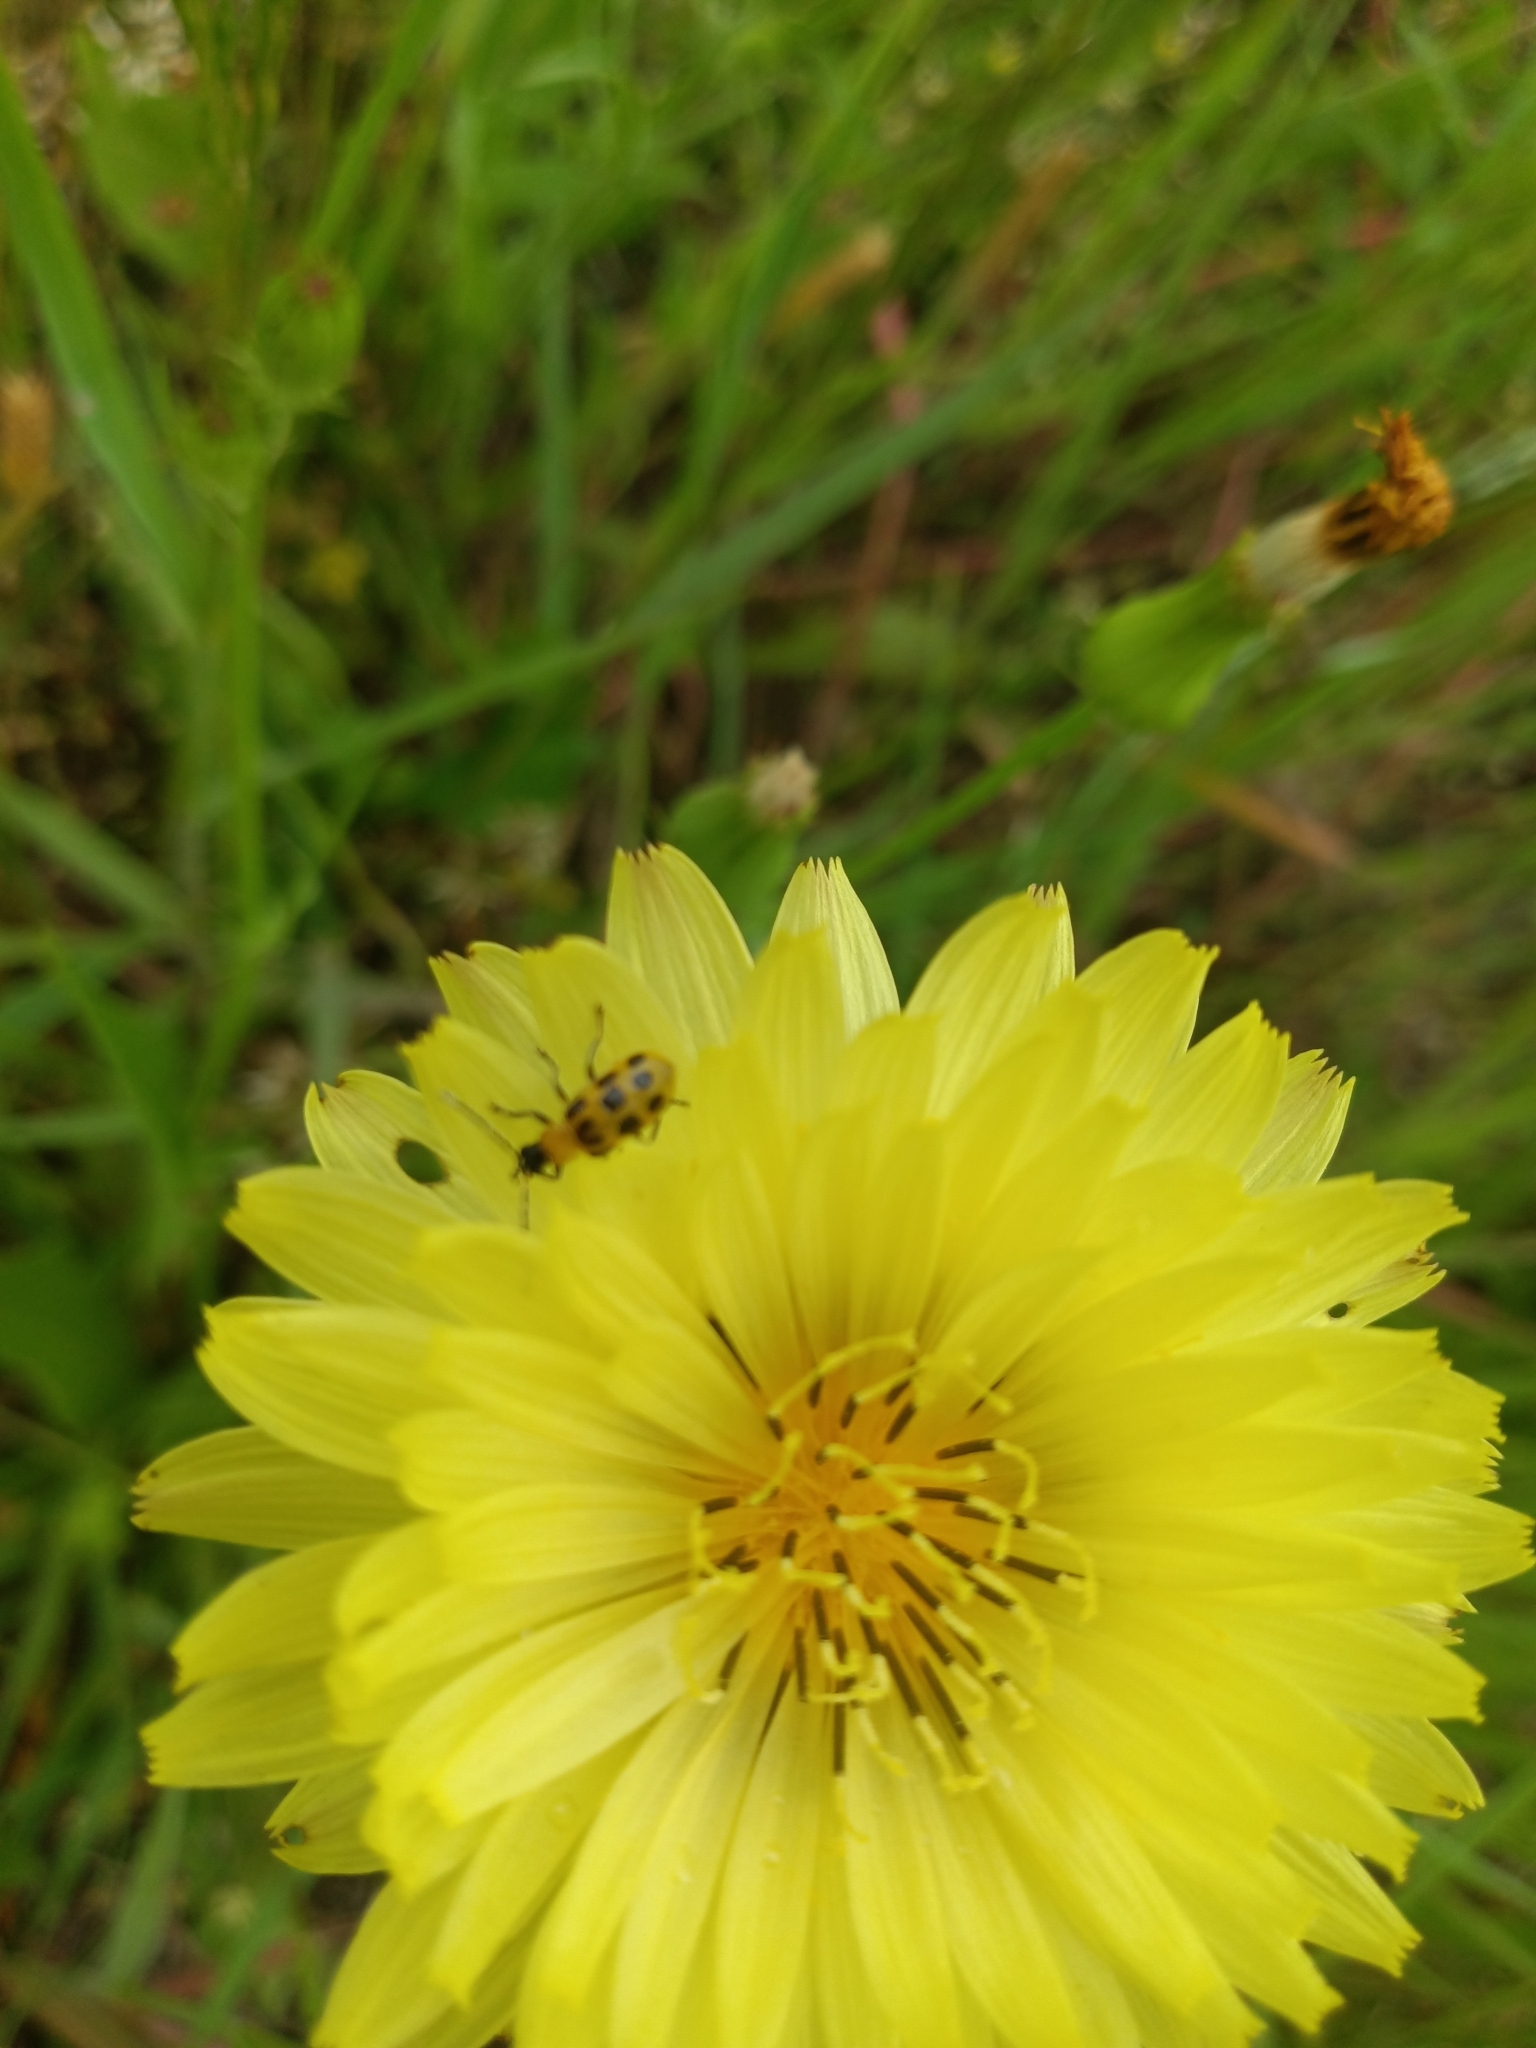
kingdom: Animalia
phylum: Arthropoda
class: Insecta
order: Coleoptera
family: Chrysomelidae
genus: Diabrotica
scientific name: Diabrotica undecimpunctata
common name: Spotted cucumber beetle
